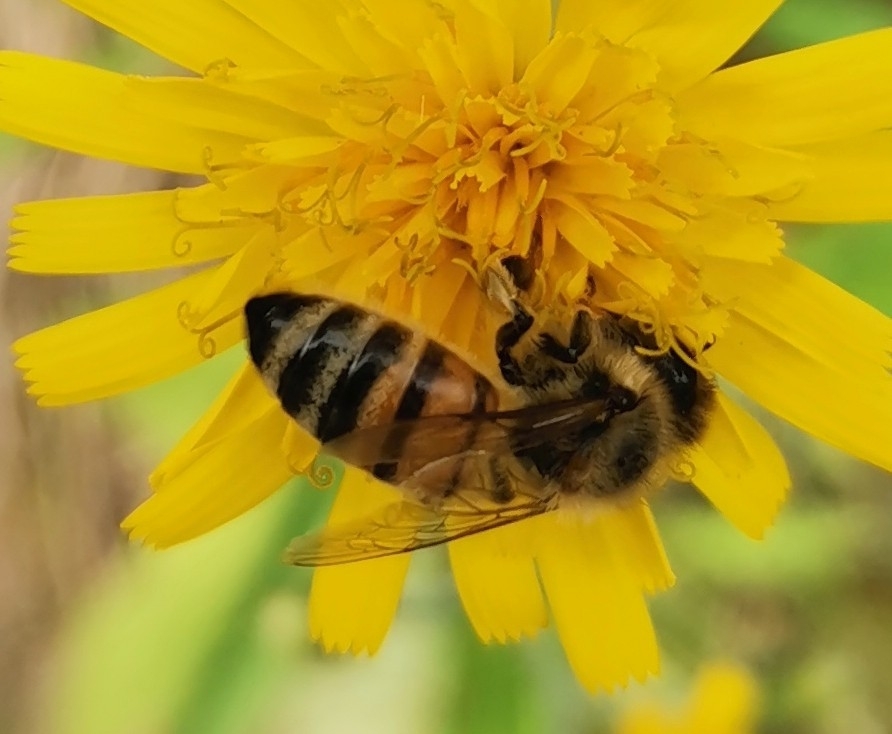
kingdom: Animalia
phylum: Arthropoda
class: Insecta
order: Hymenoptera
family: Apidae
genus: Apis
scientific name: Apis mellifera
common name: Honey bee
